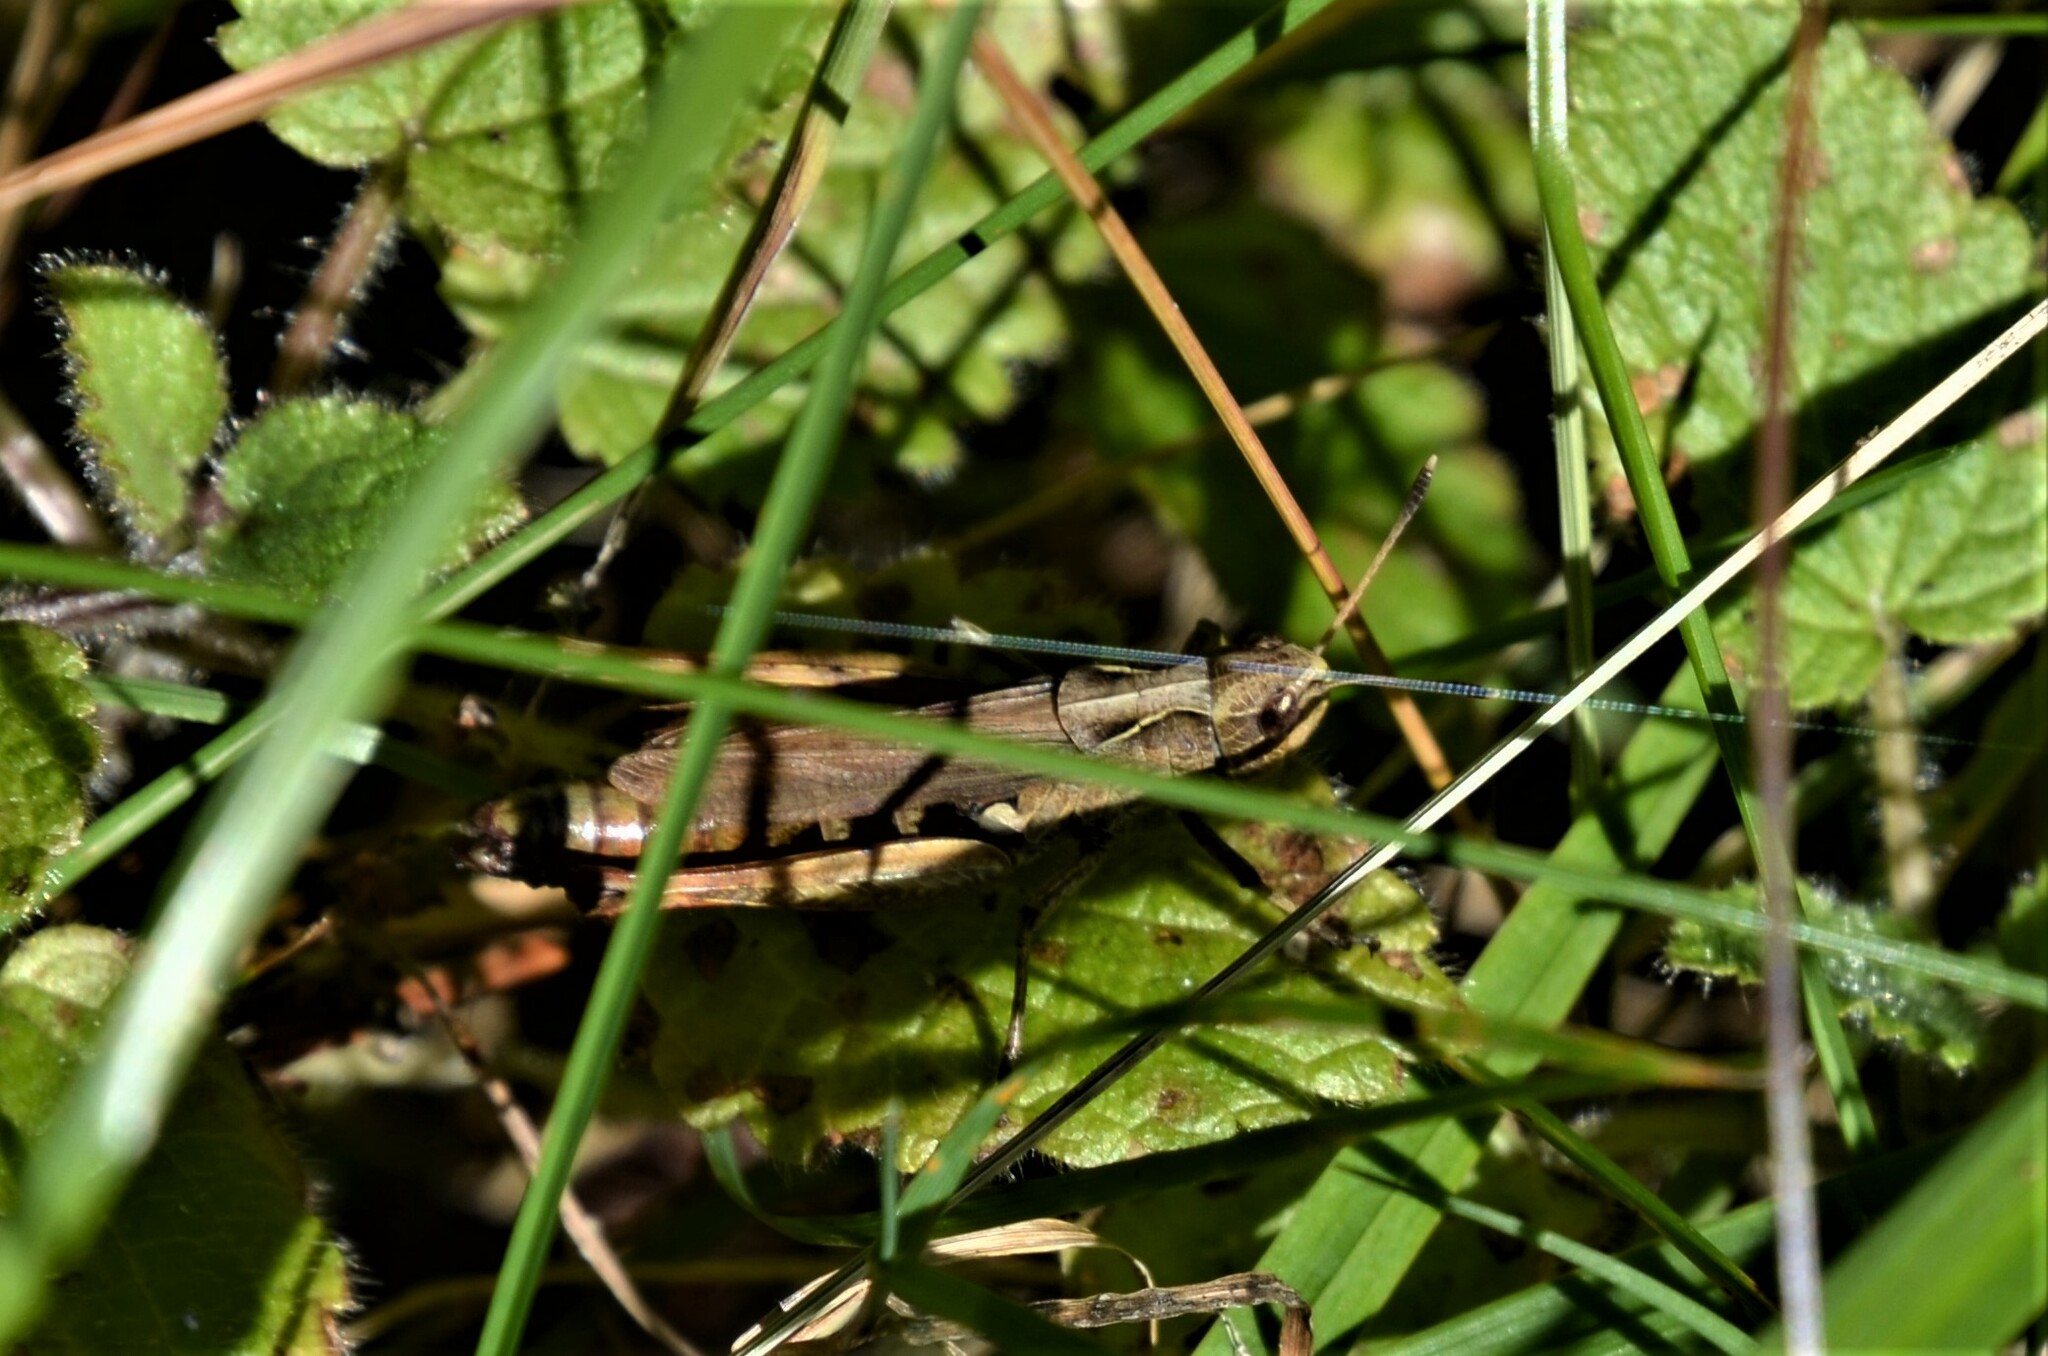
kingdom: Animalia
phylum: Arthropoda
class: Insecta
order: Orthoptera
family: Acrididae
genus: Gomphocerippus
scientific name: Gomphocerippus rufus
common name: Rufous grasshopper
